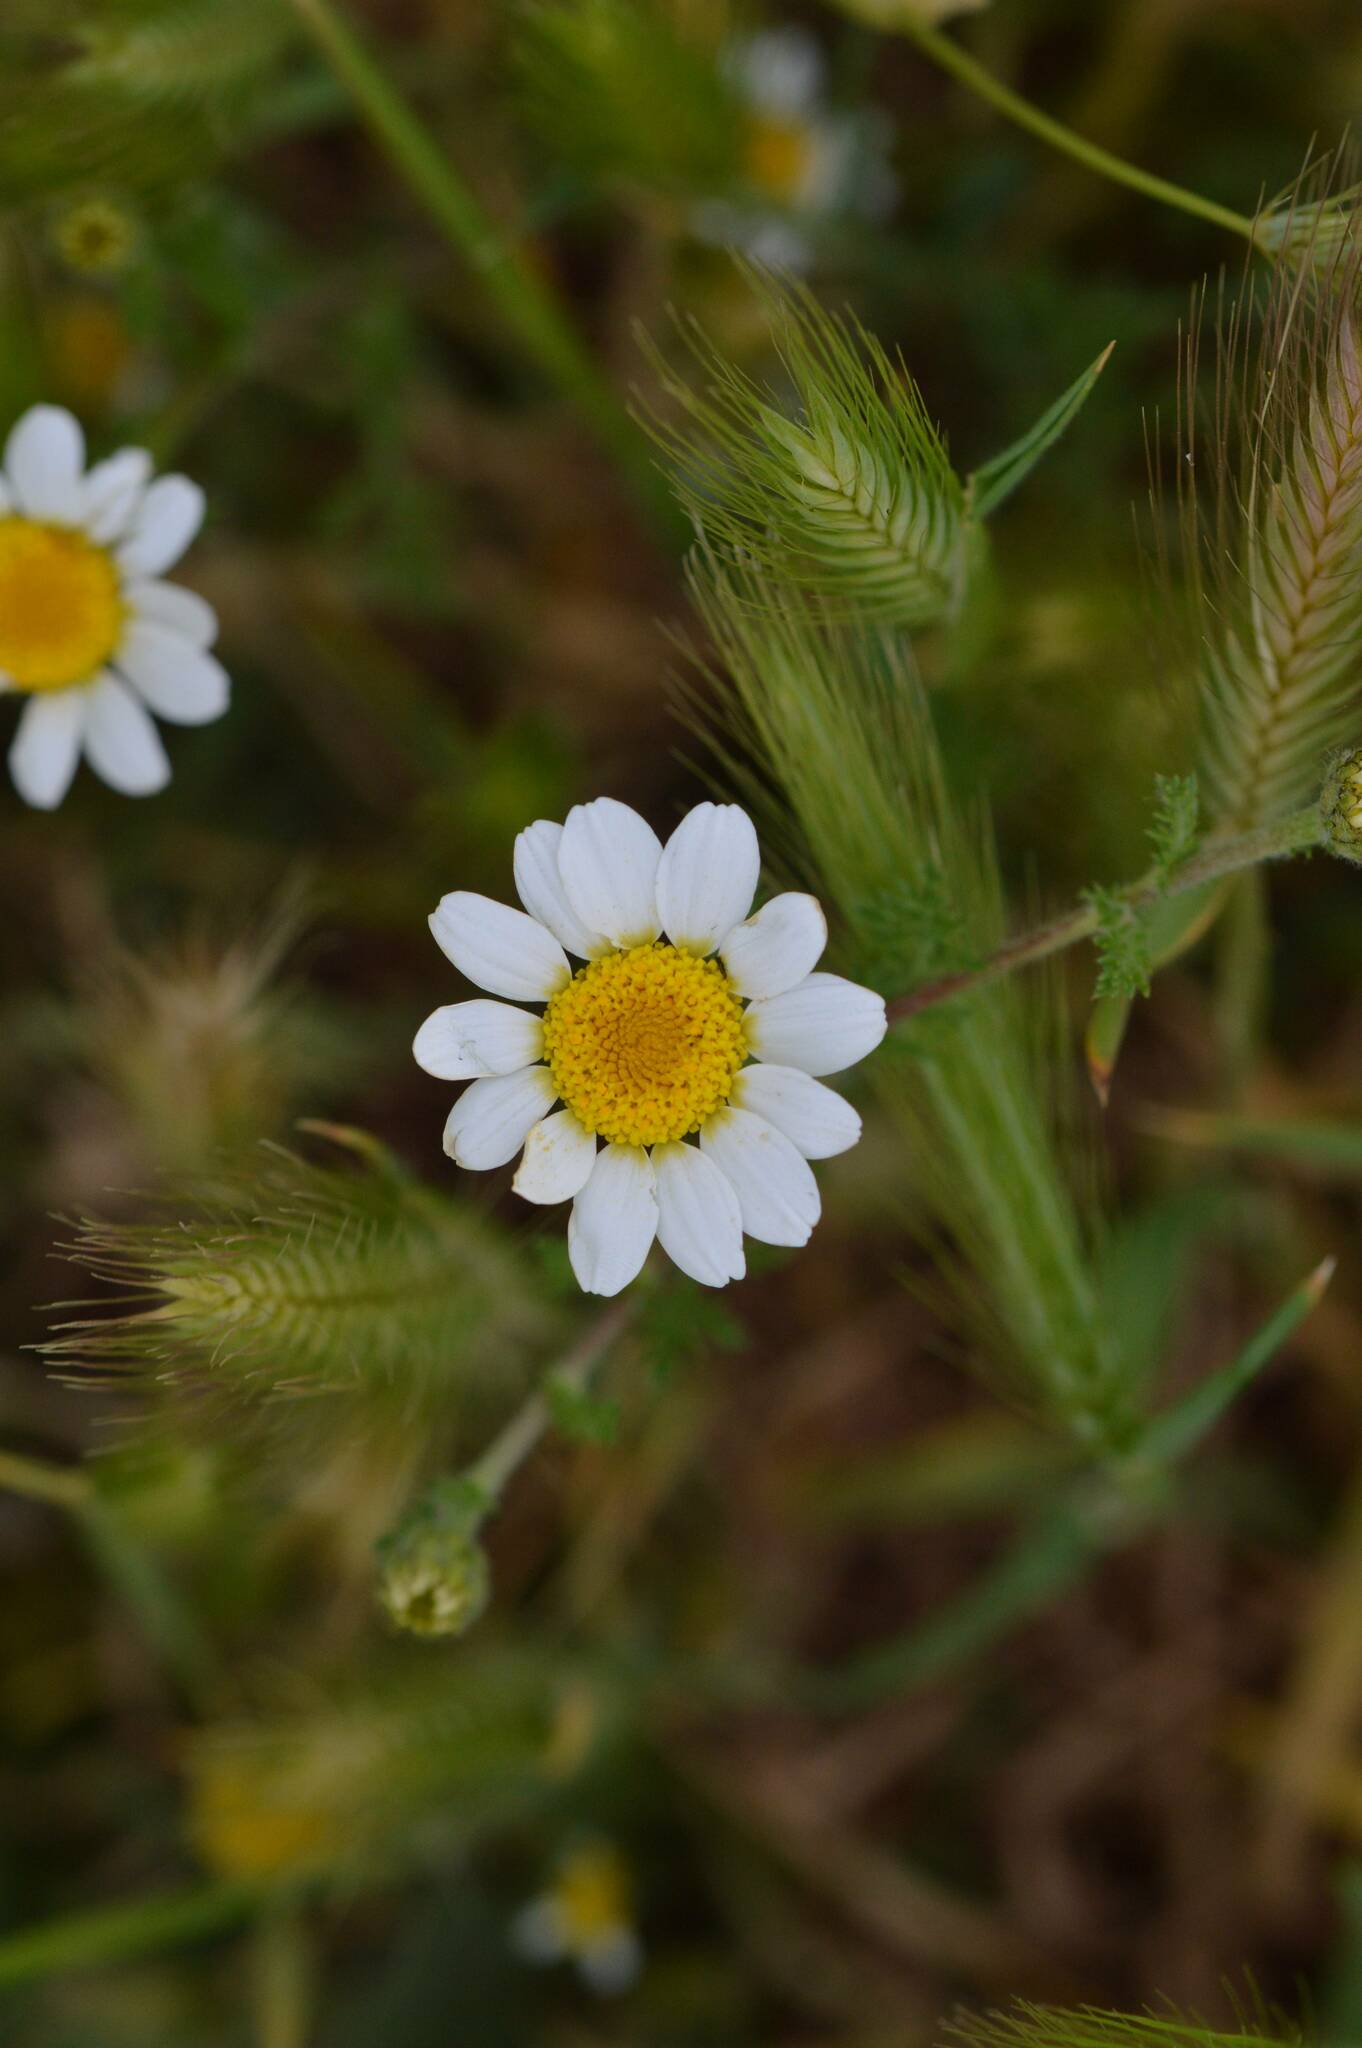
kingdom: Plantae
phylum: Tracheophyta
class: Magnoliopsida
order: Asterales
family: Asteraceae
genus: Anacyclus
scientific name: Anacyclus clavatus
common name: Whitebuttons
